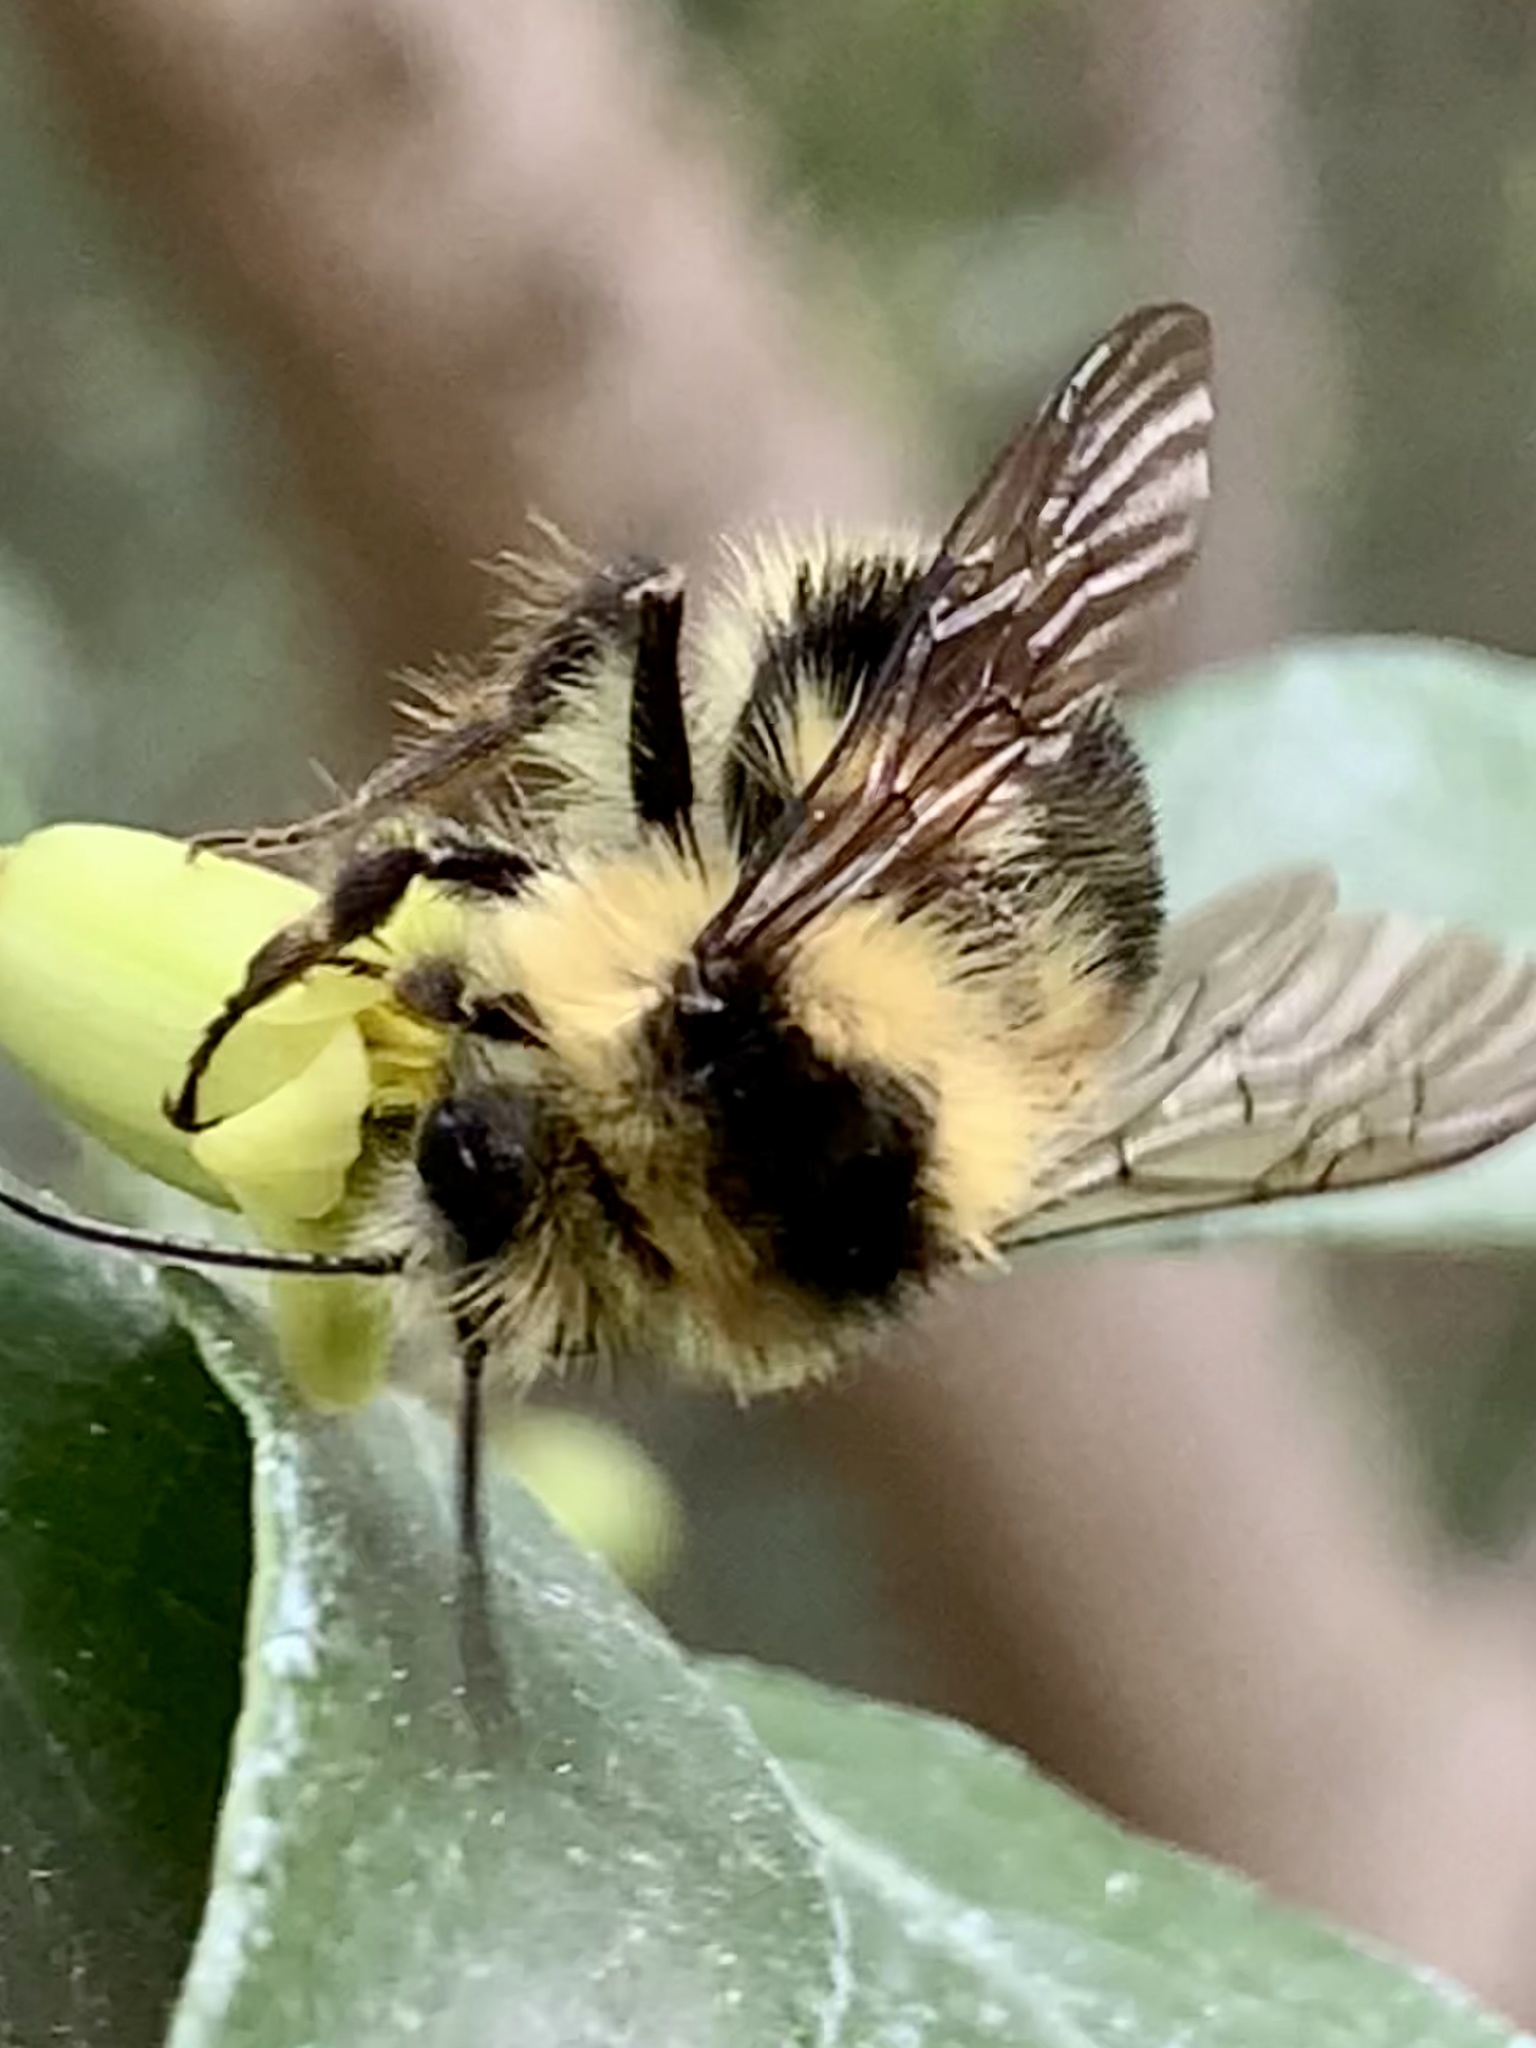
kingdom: Animalia
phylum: Arthropoda
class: Insecta
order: Hymenoptera
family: Apidae
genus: Bombus
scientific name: Bombus melanopygus
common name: Black tail bumble bee
